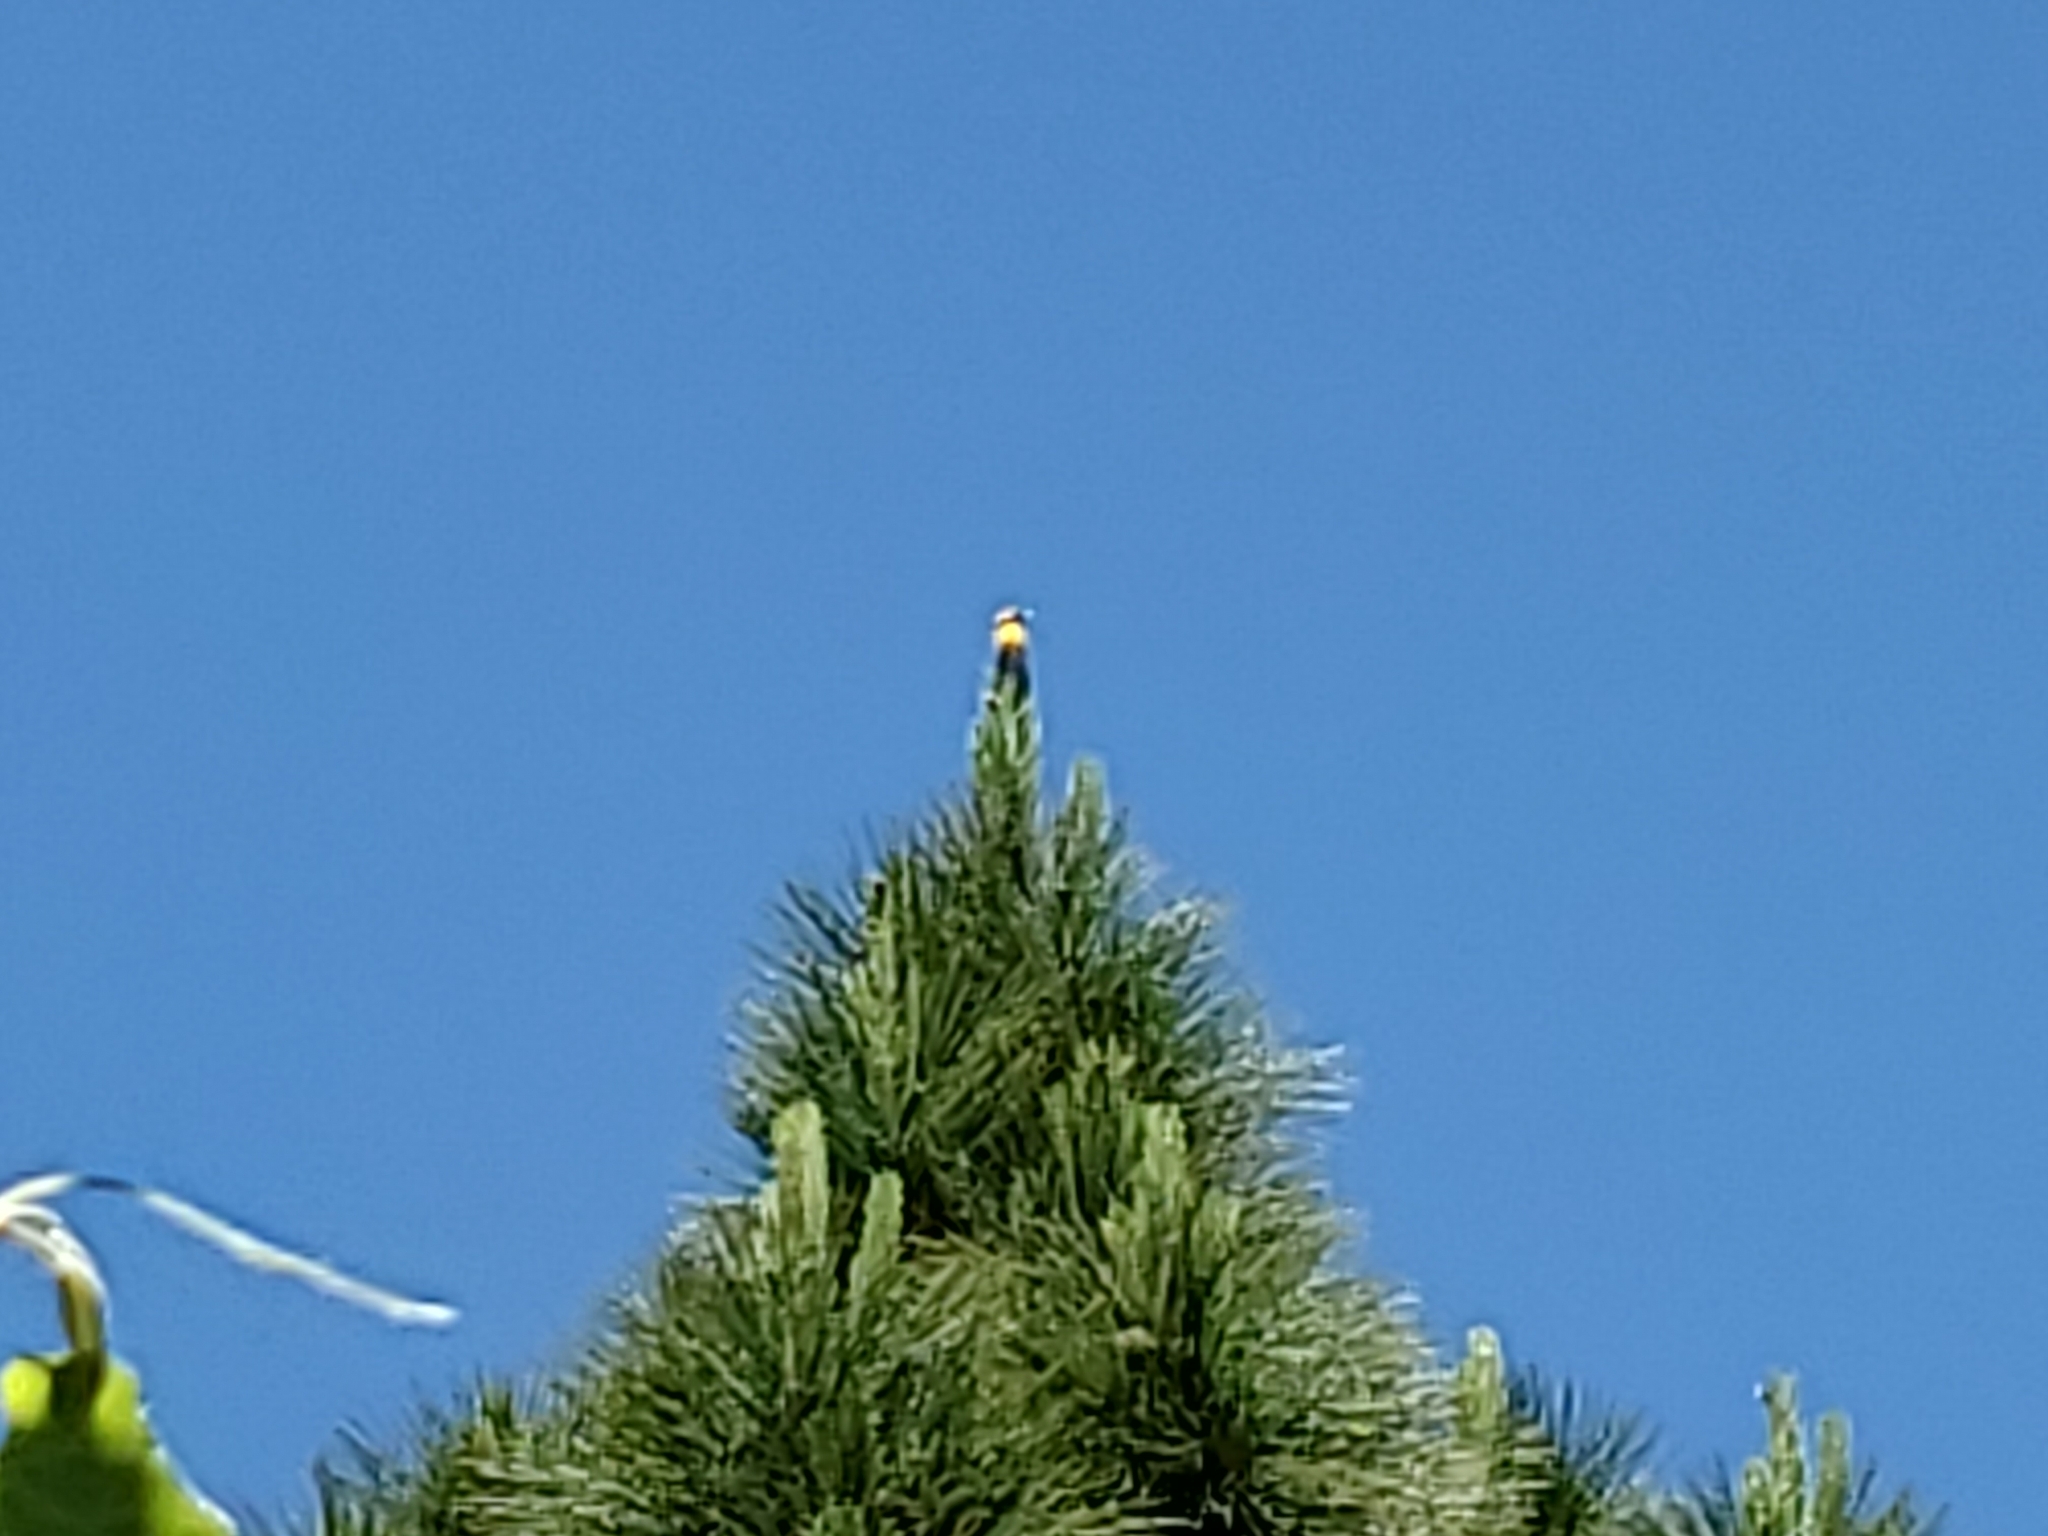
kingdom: Animalia
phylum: Chordata
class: Aves
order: Passeriformes
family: Icteridae
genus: Icterus
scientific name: Icterus cucullatus
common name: Hooded oriole
